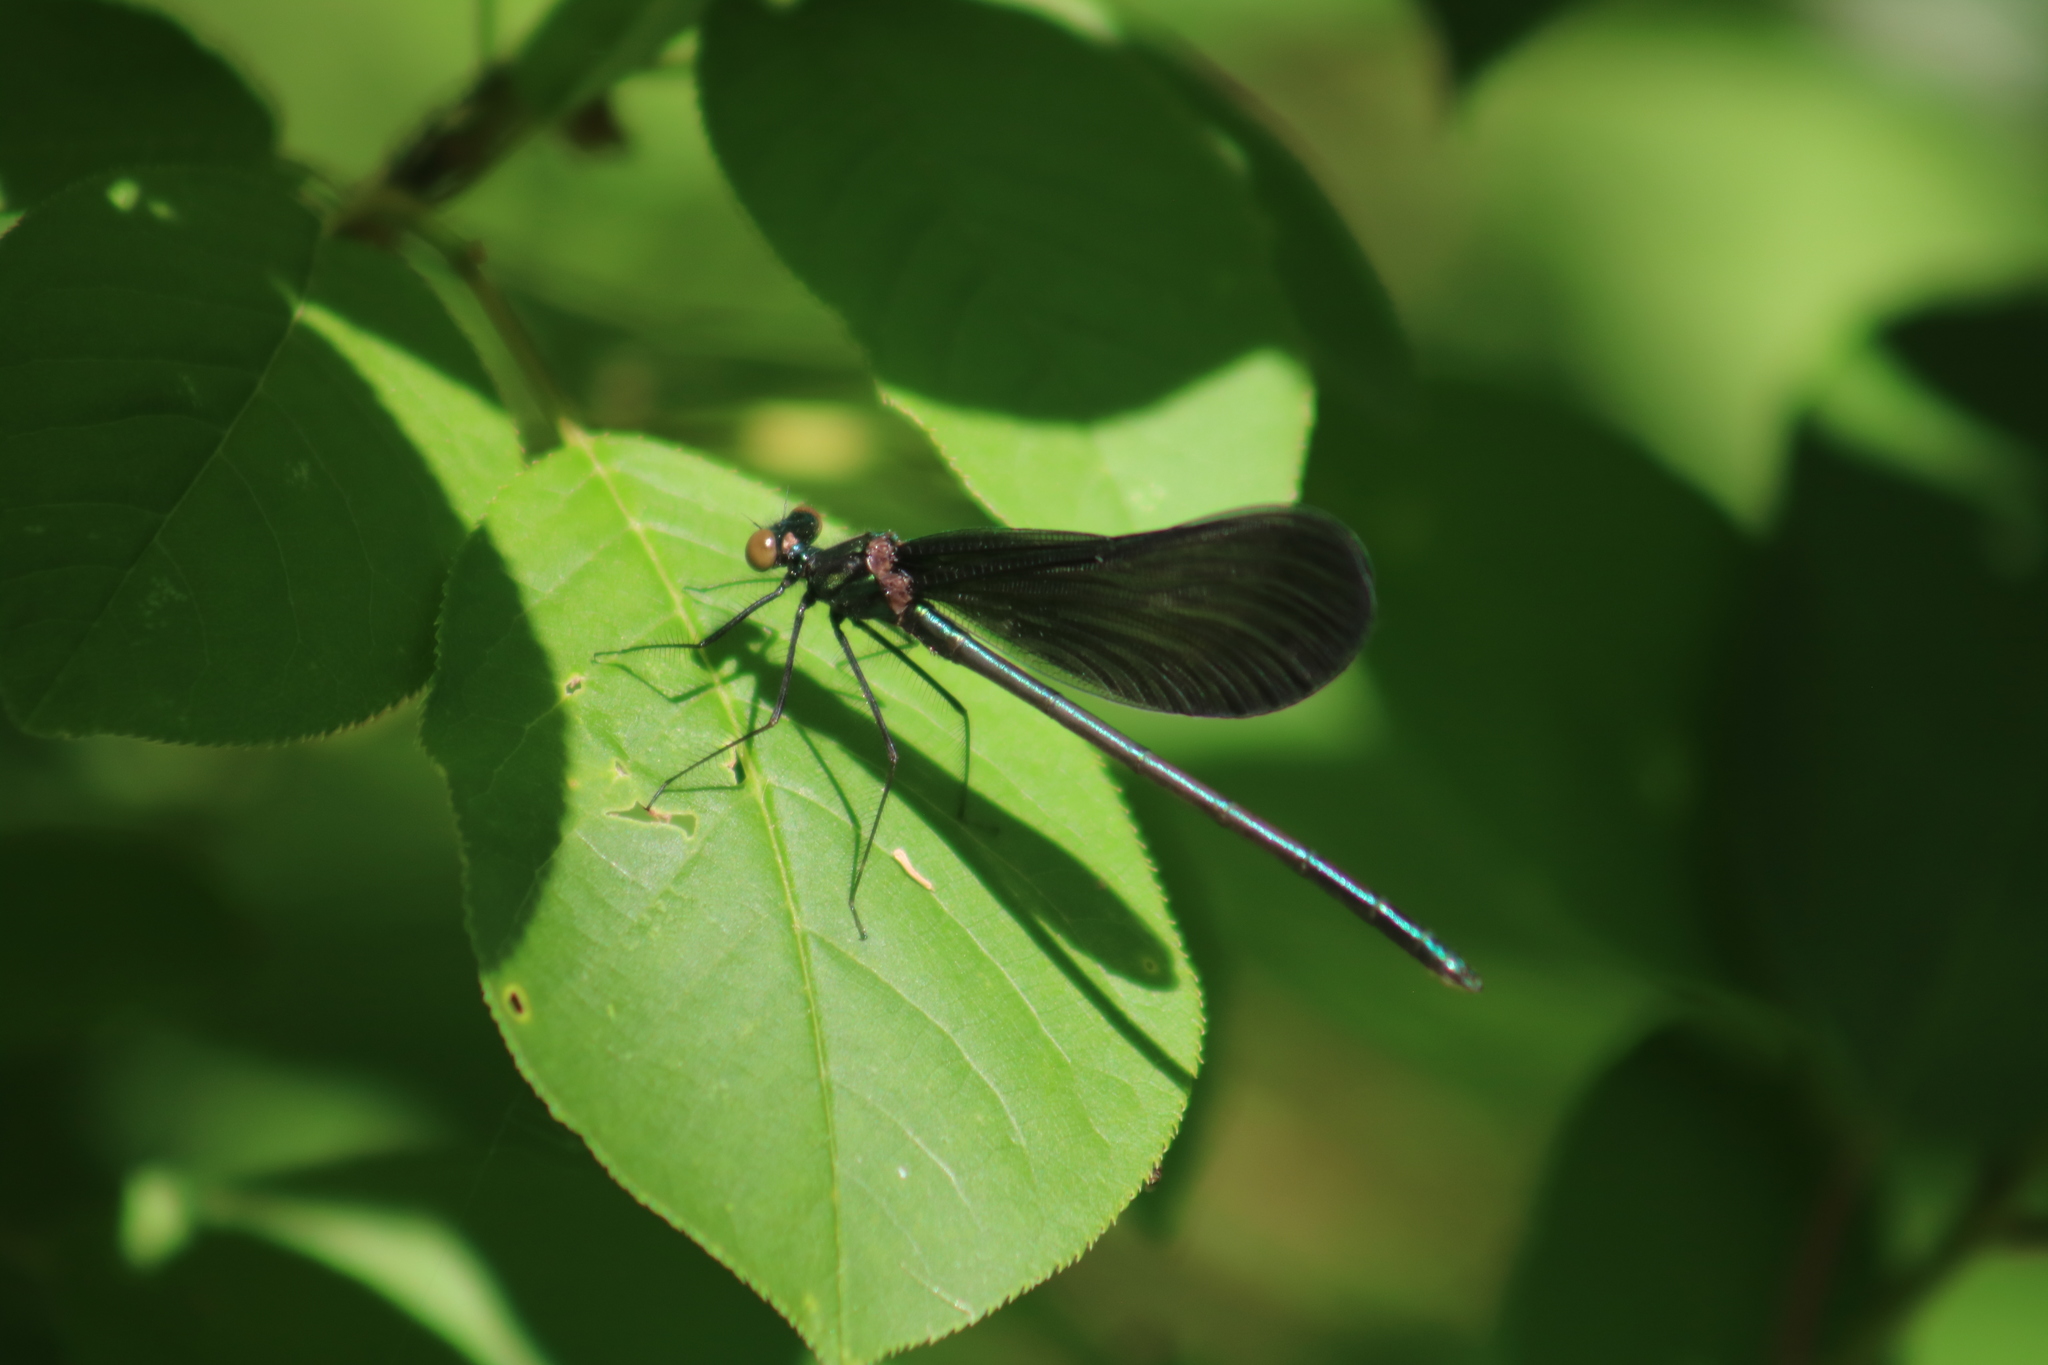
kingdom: Animalia
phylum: Arthropoda
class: Insecta
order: Odonata
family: Calopterygidae
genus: Calopteryx
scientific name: Calopteryx maculata
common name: Ebony jewelwing
